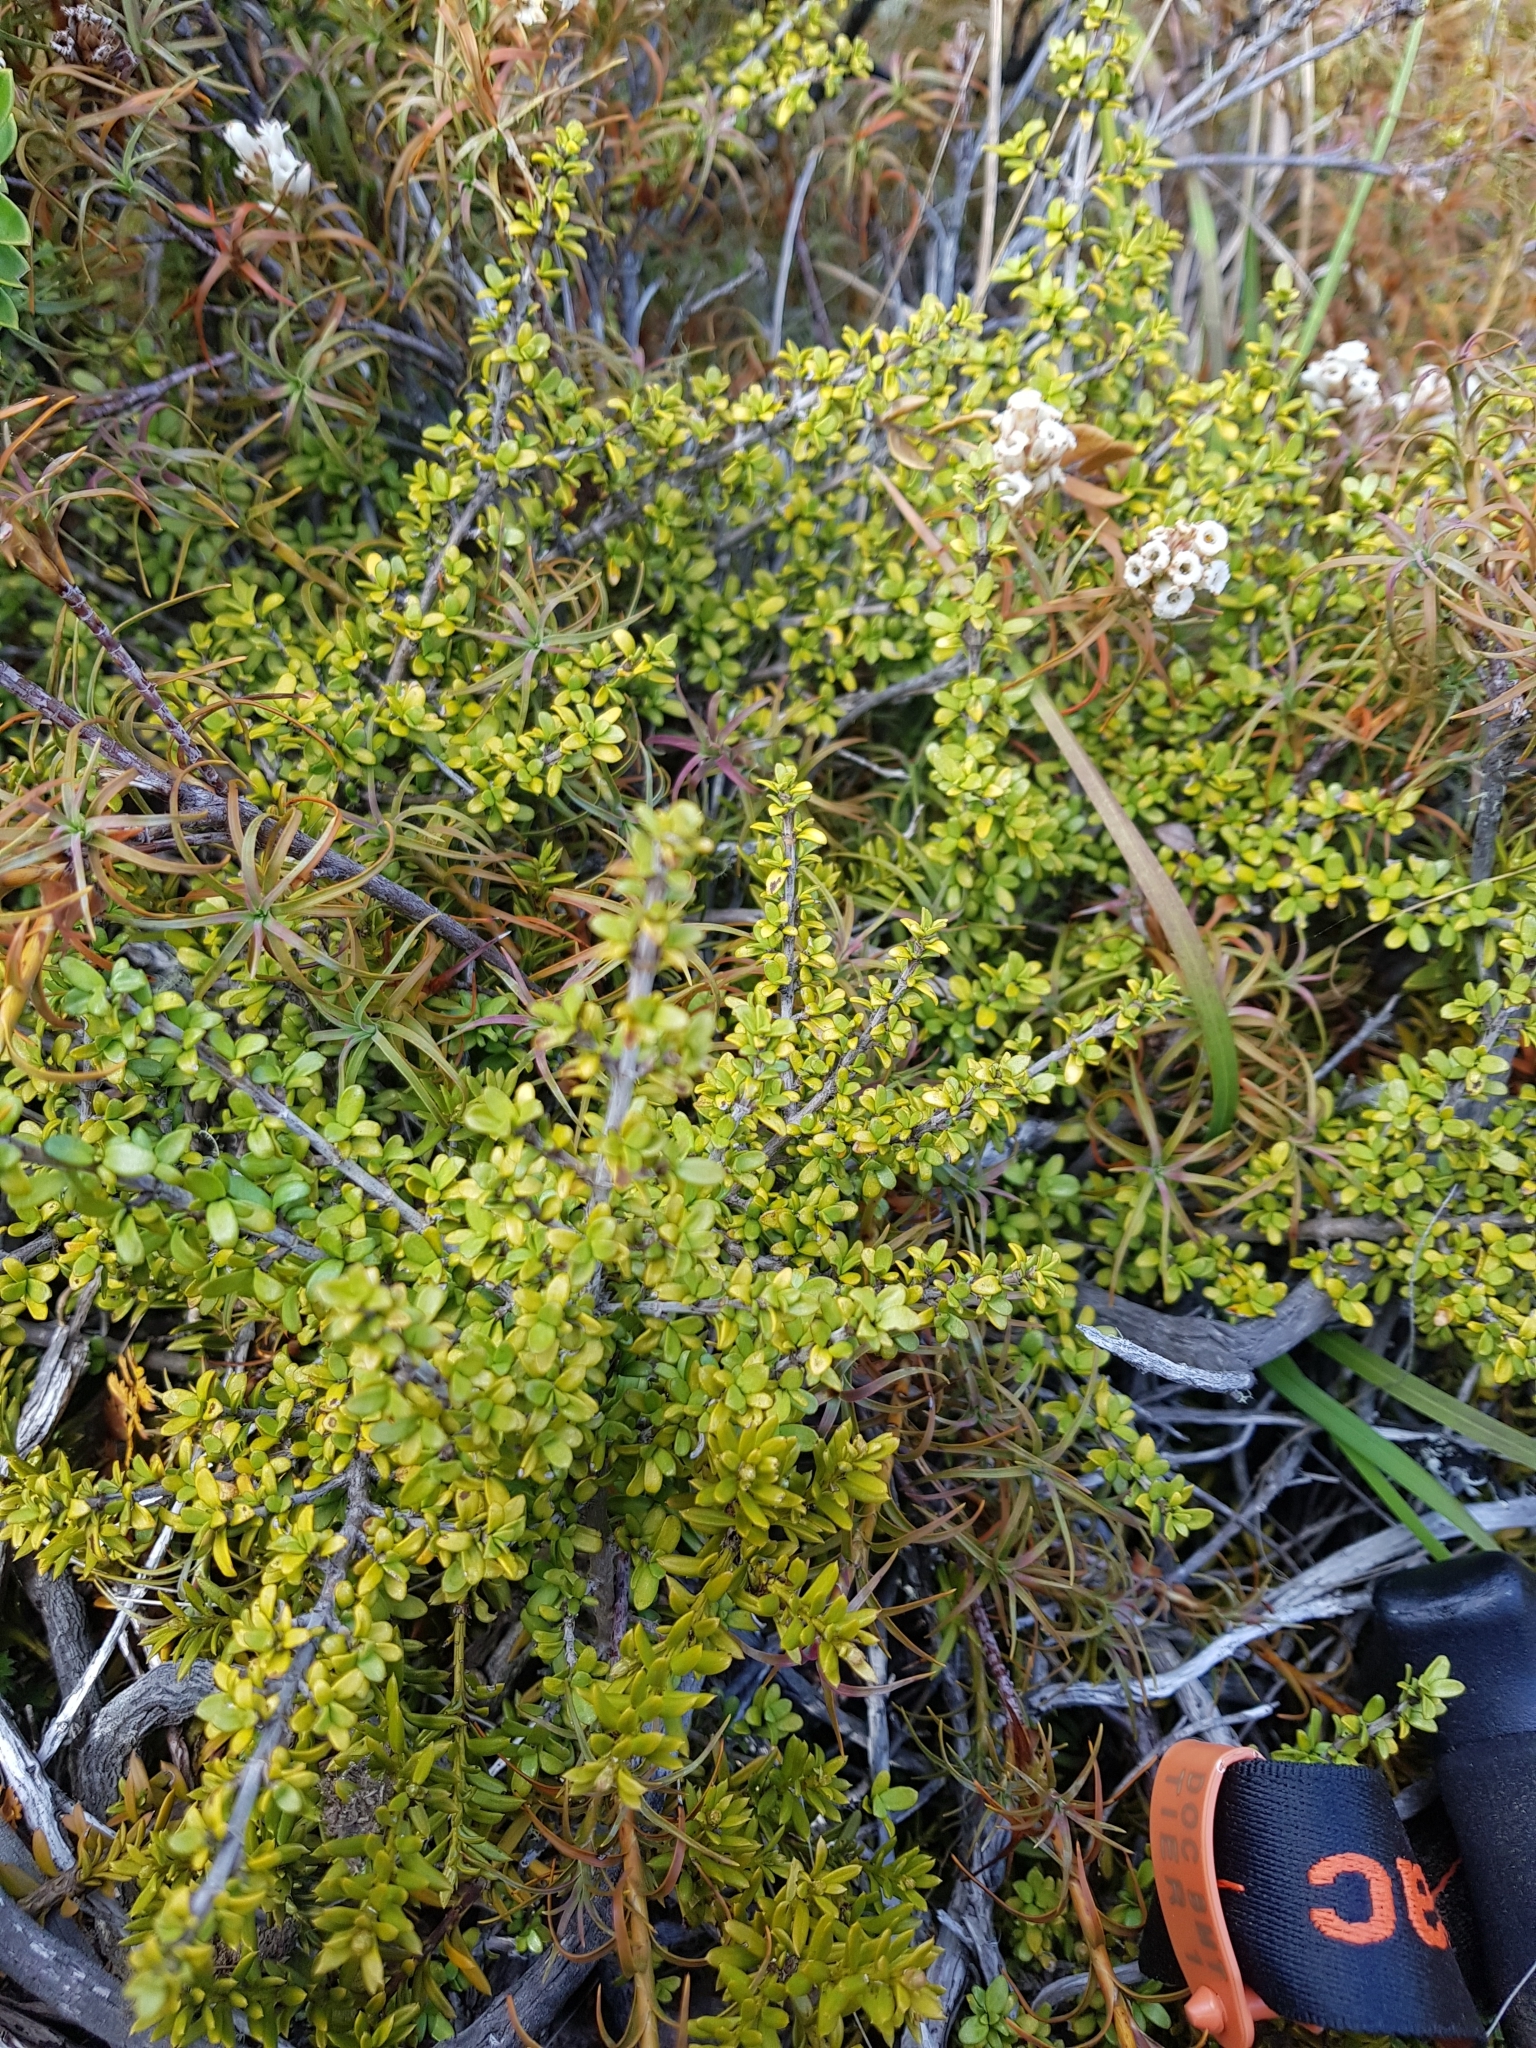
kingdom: Plantae
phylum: Tracheophyta
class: Magnoliopsida
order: Gentianales
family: Rubiaceae
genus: Coprosma
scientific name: Coprosma pseudocuneata
